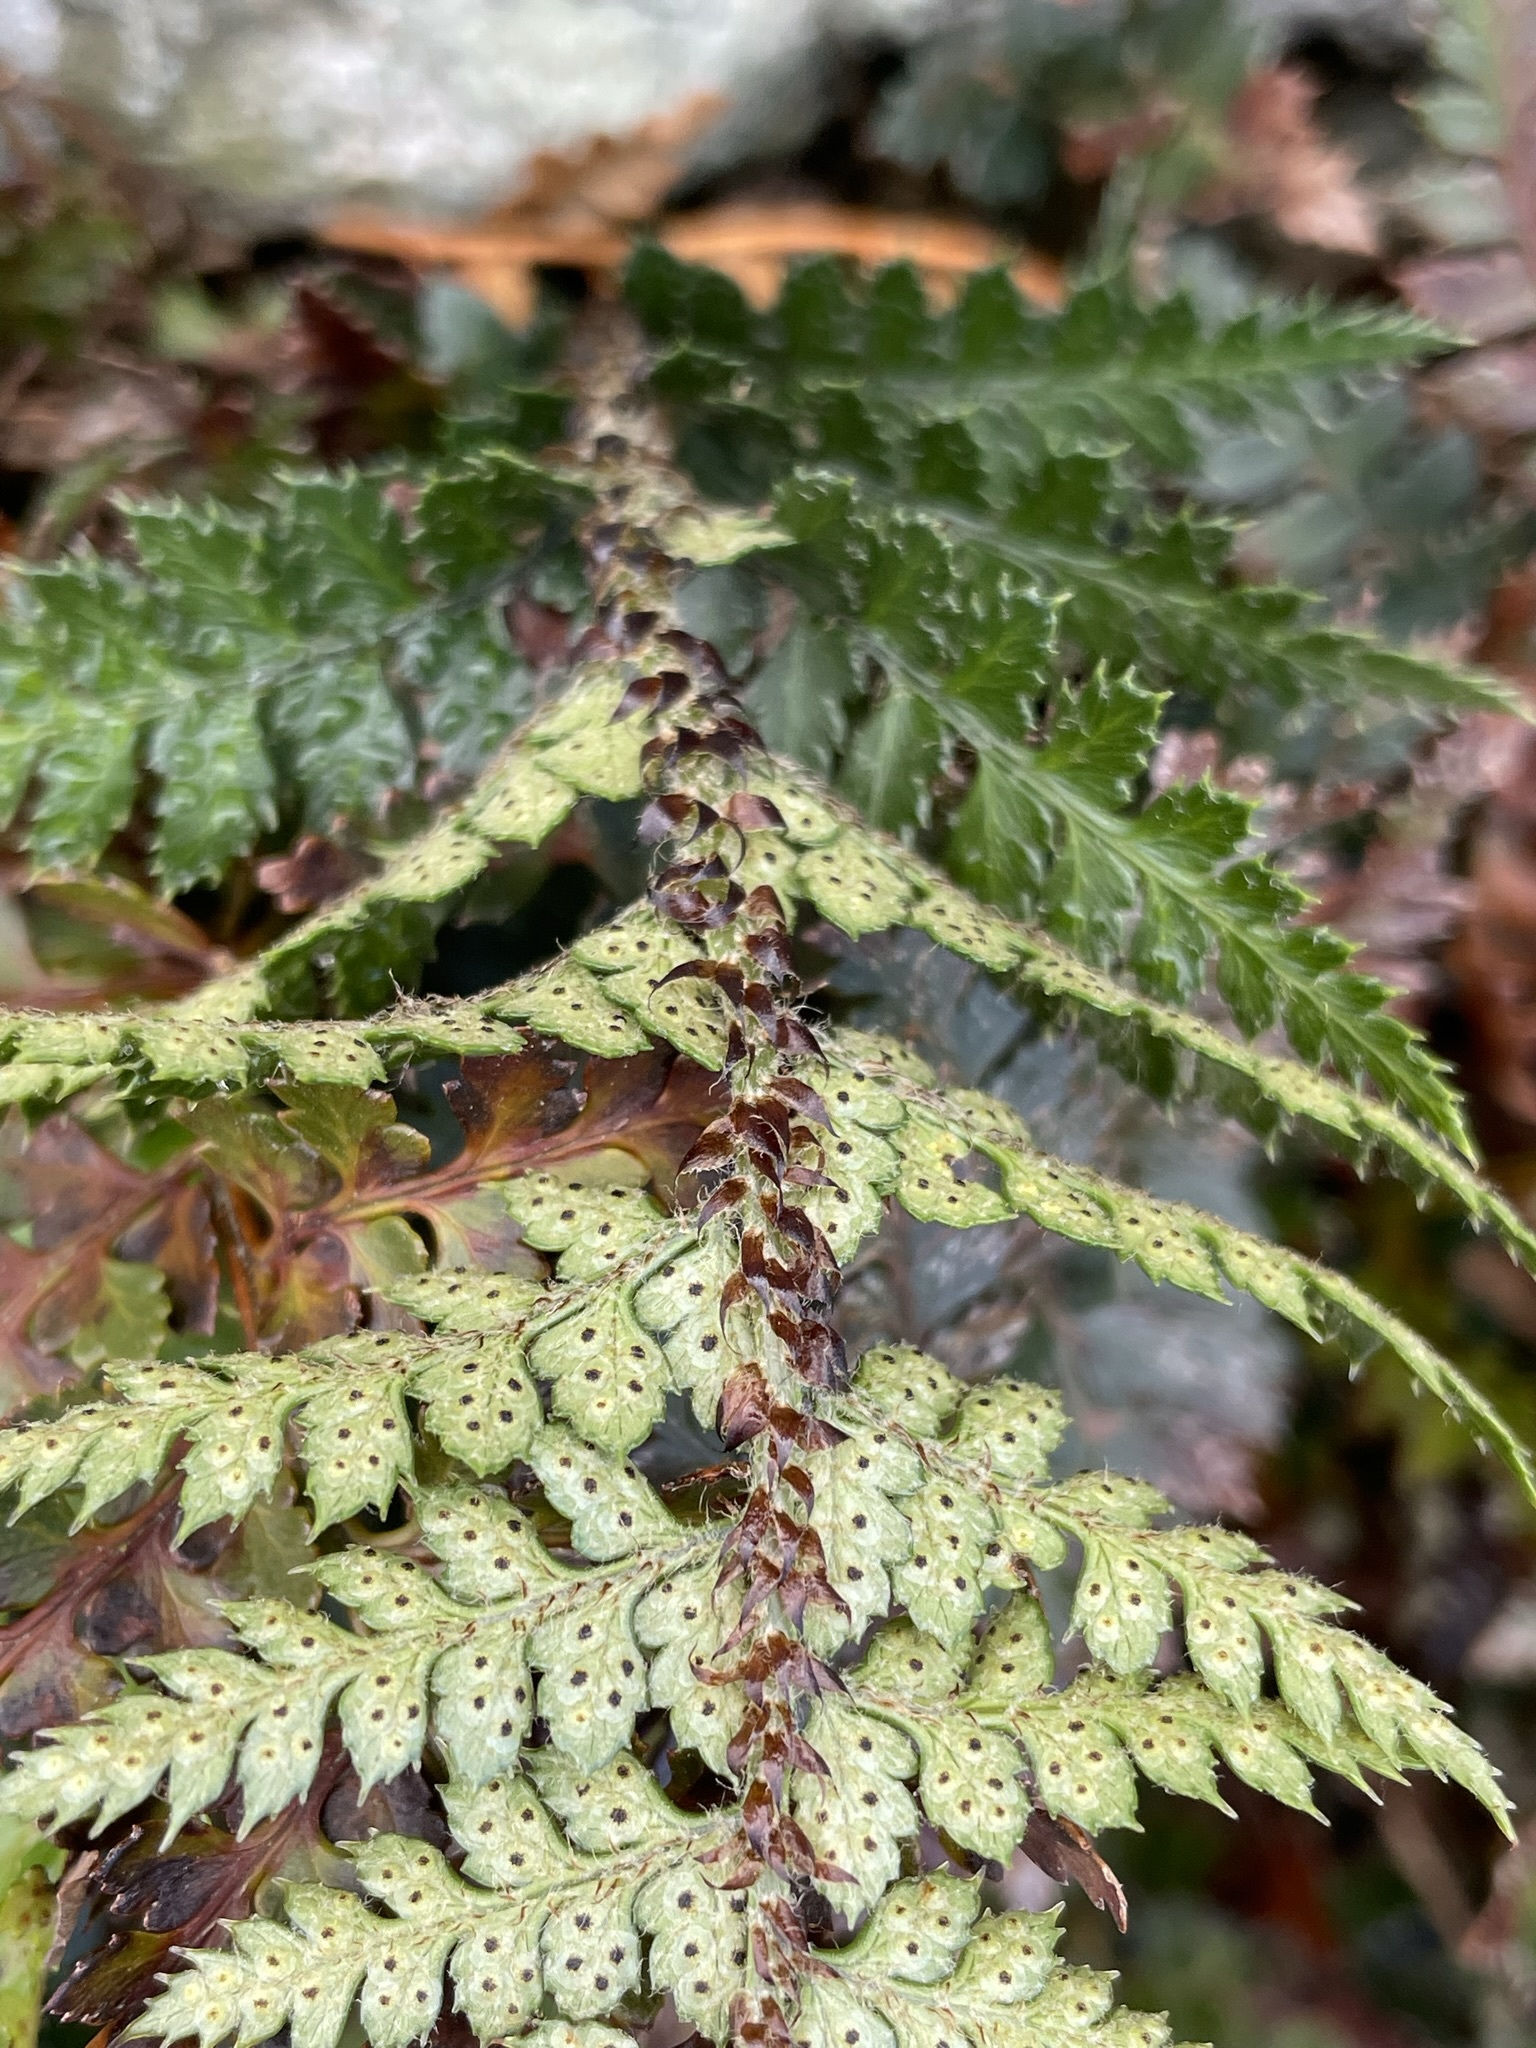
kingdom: Plantae
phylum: Tracheophyta
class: Polypodiopsida
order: Polypodiales
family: Dryopteridaceae
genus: Polystichum
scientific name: Polystichum oculatum
